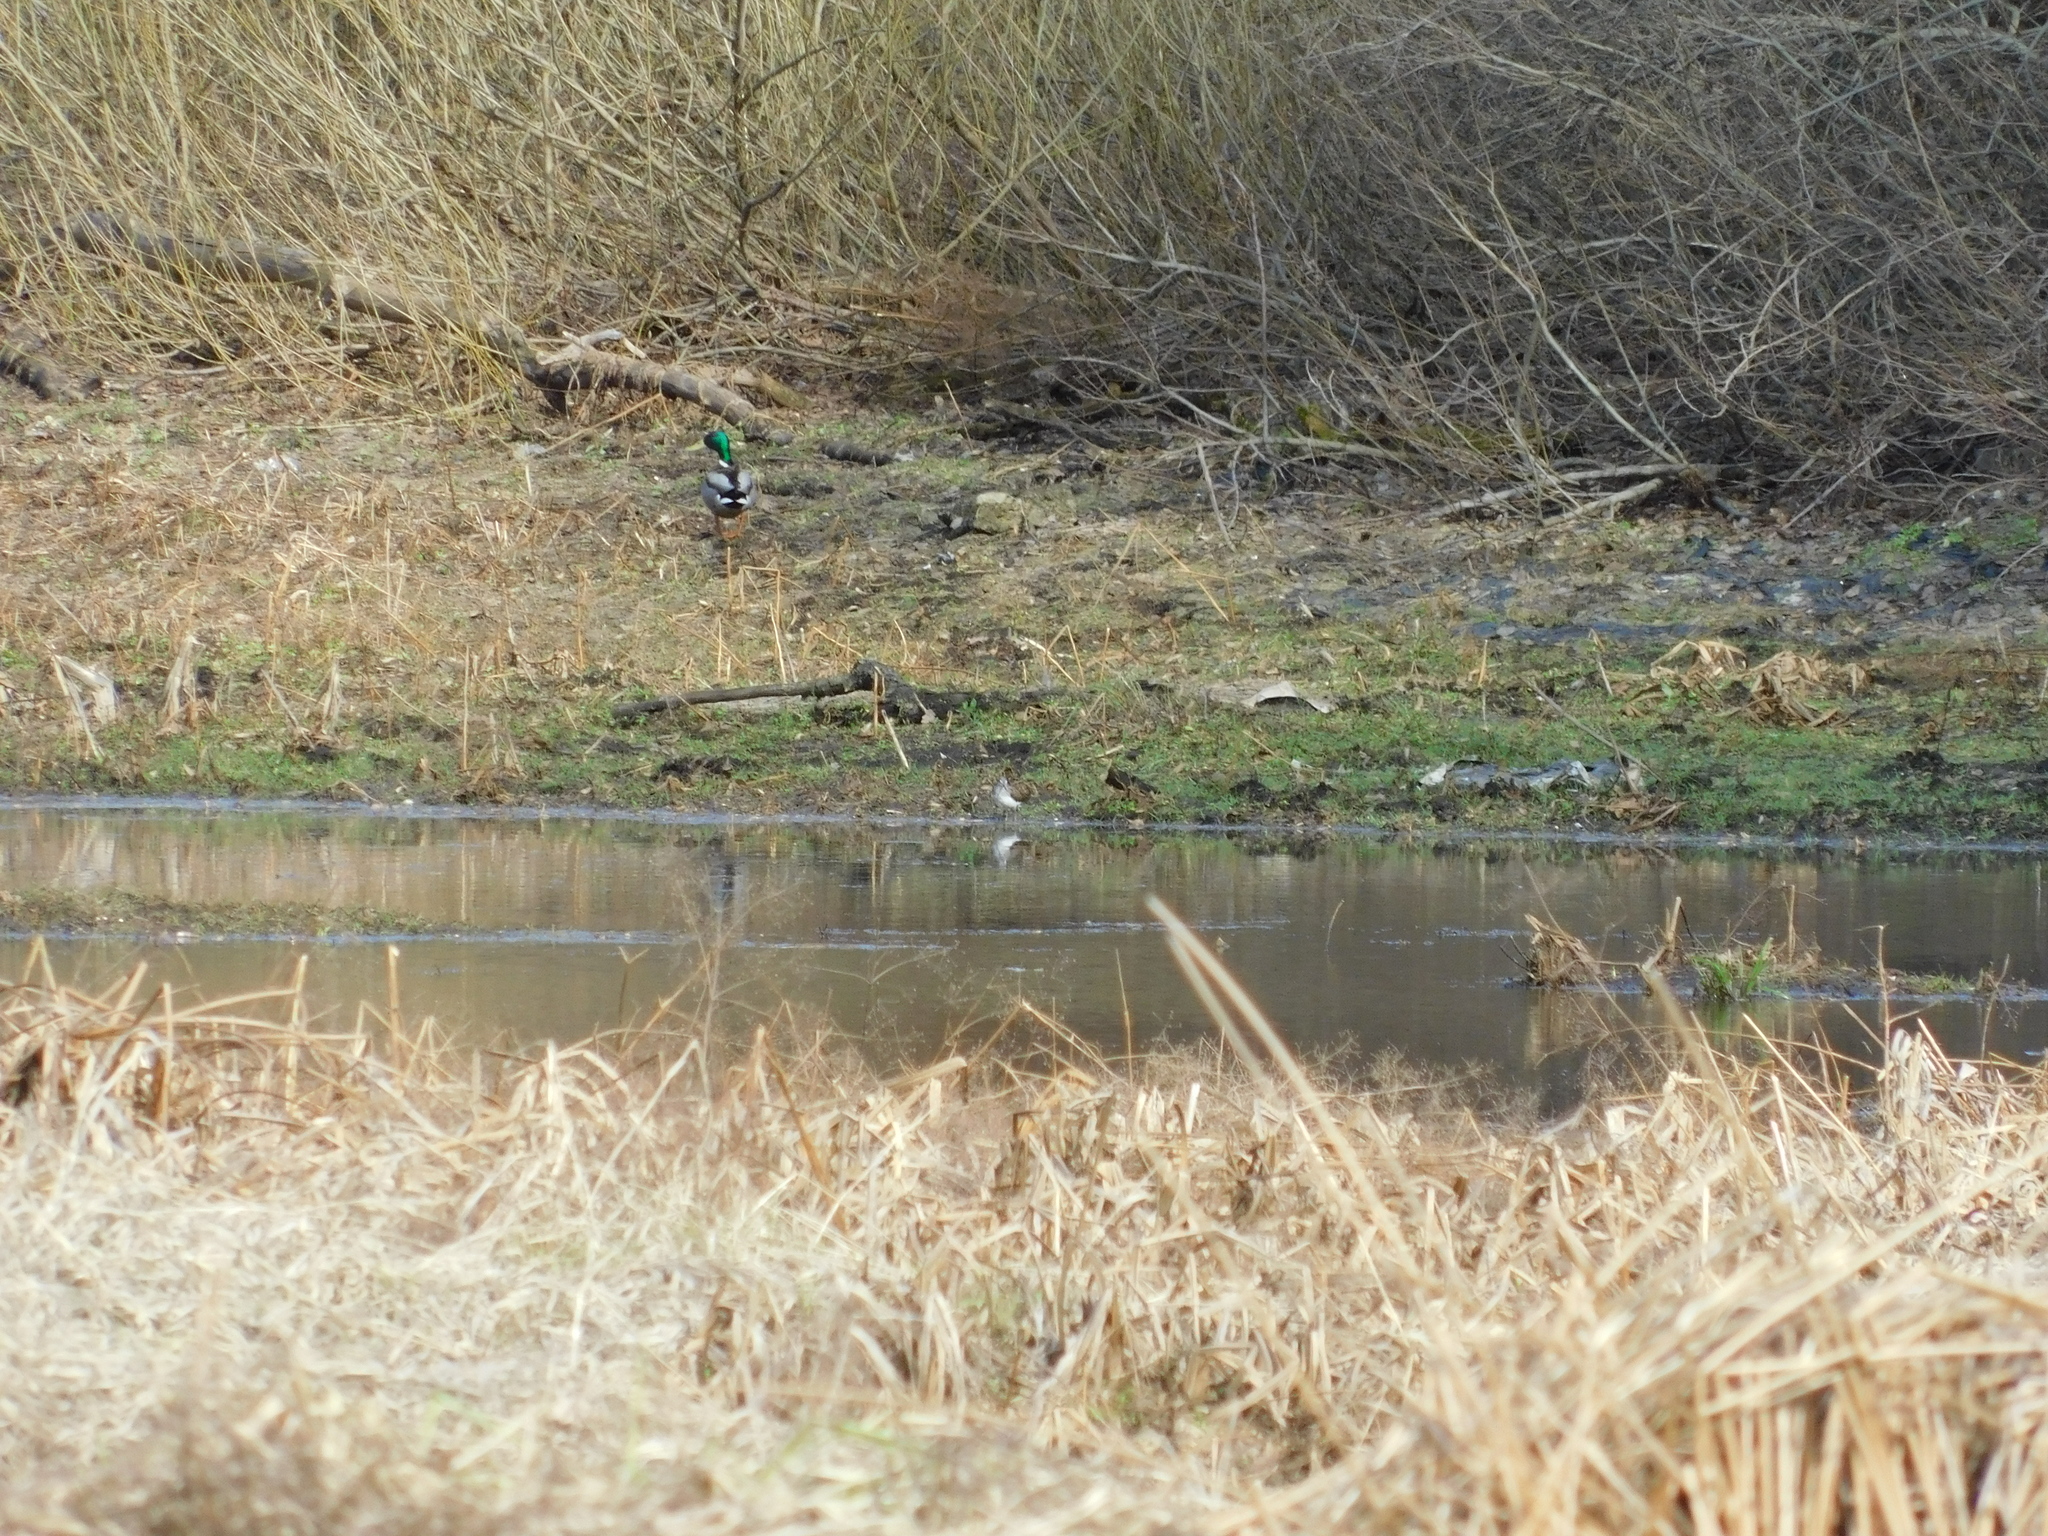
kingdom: Animalia
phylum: Chordata
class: Aves
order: Anseriformes
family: Anatidae
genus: Anas
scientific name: Anas platyrhynchos
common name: Mallard
